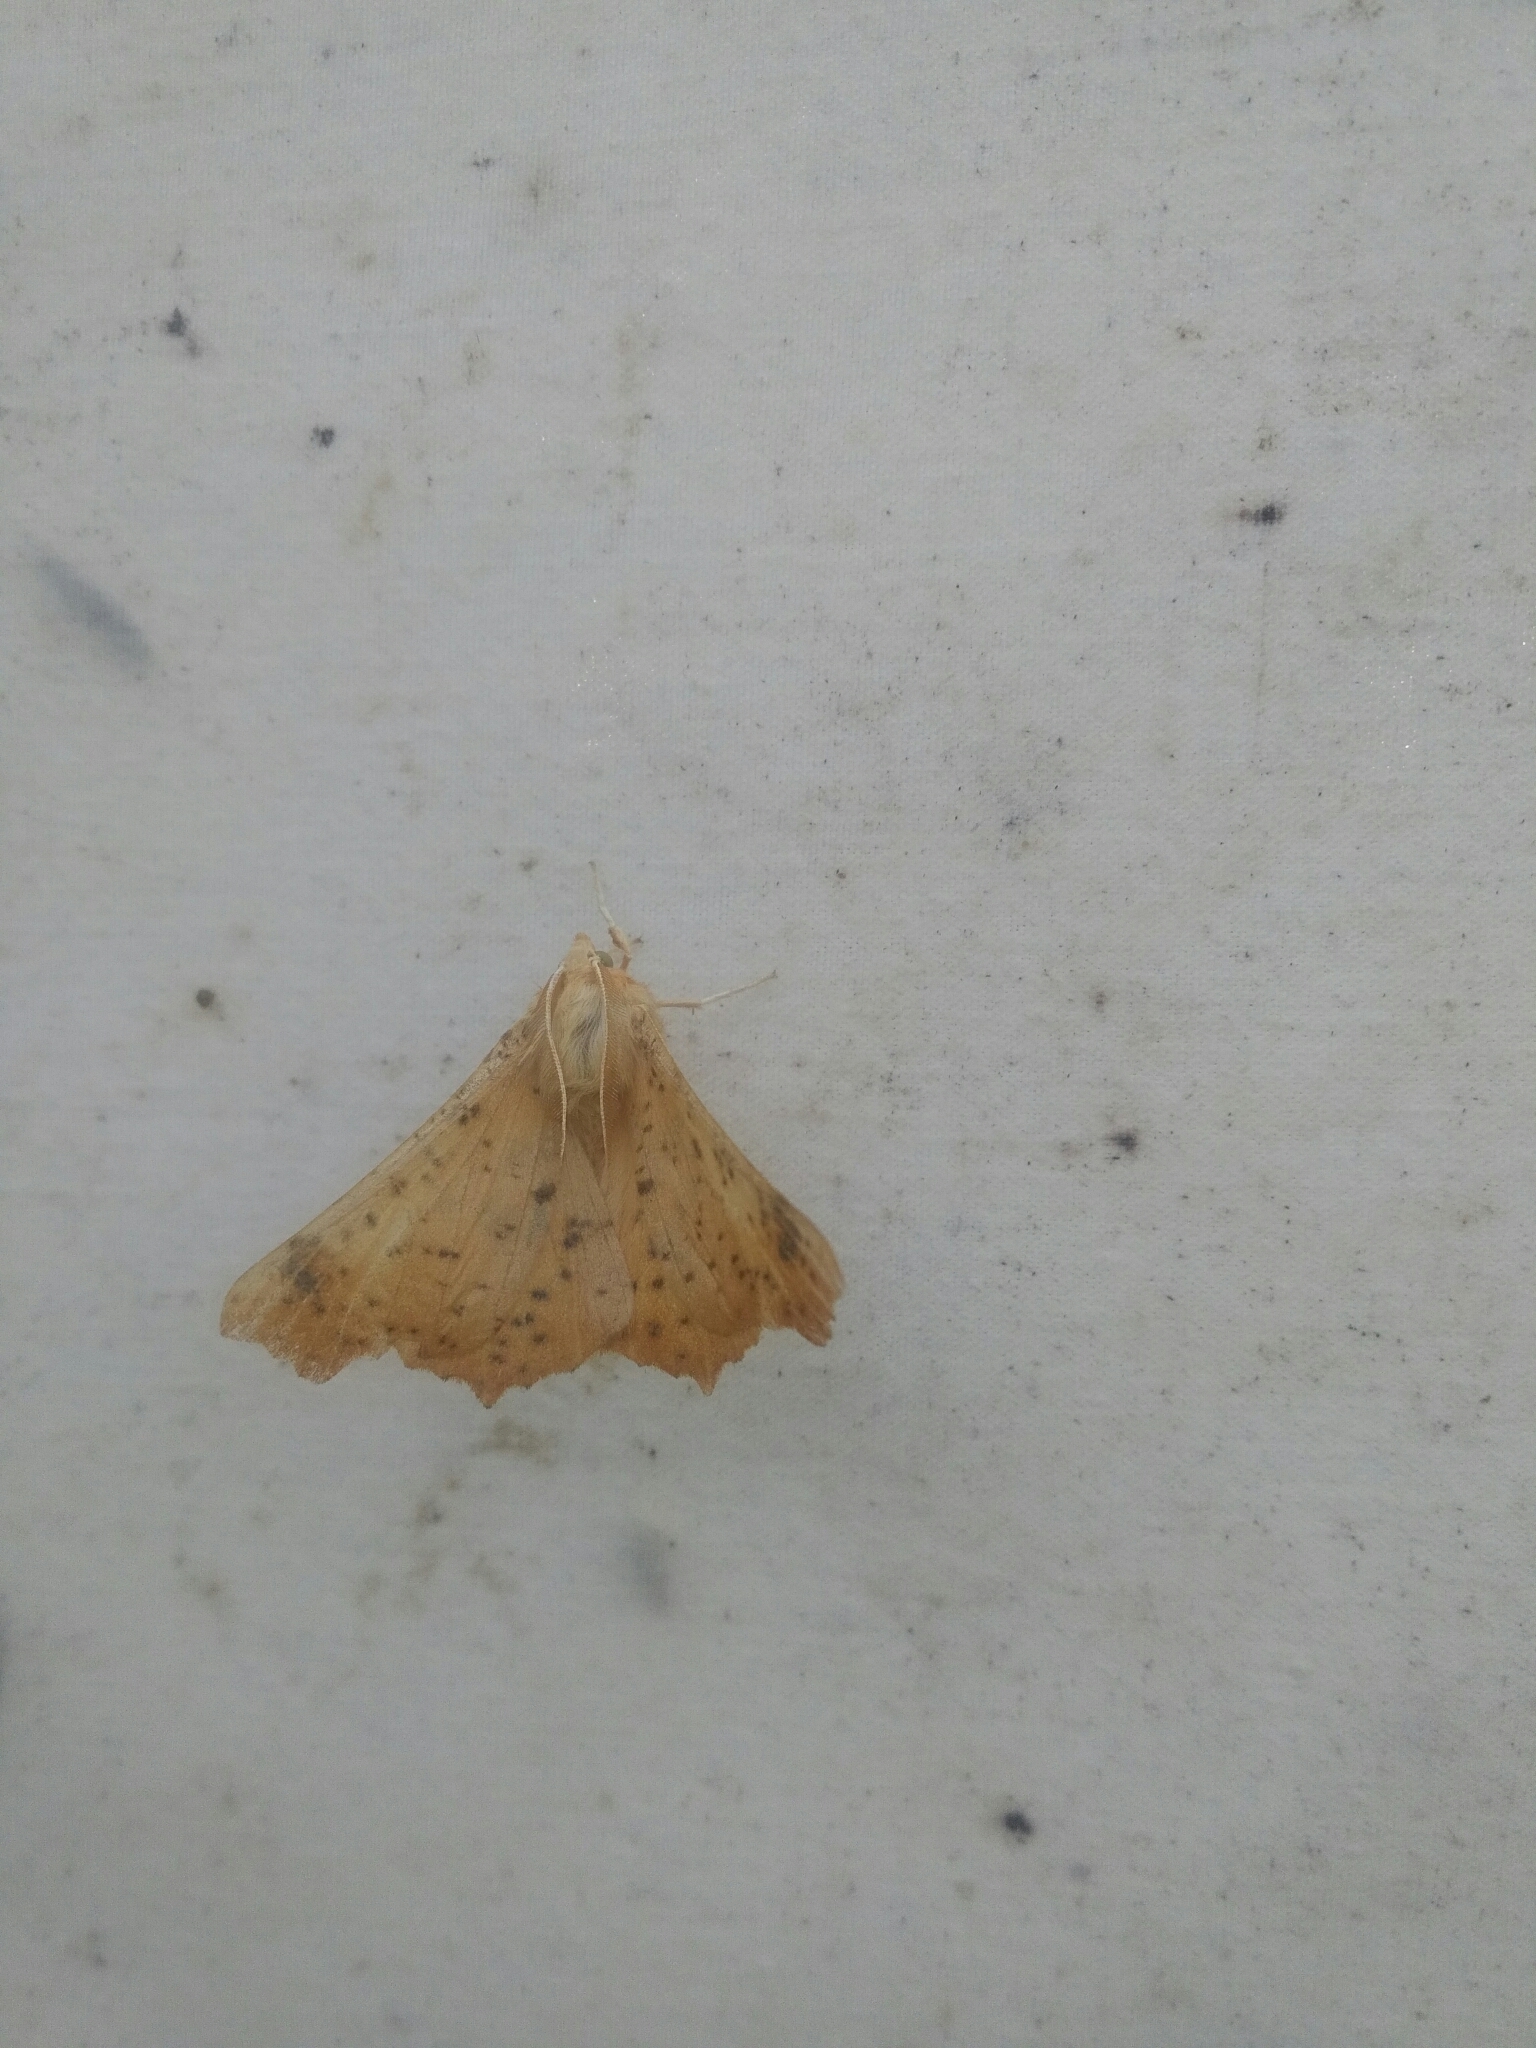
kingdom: Animalia
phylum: Arthropoda
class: Insecta
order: Lepidoptera
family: Geometridae
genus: Ennomos
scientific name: Ennomos magnaria
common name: Maple spanworm
